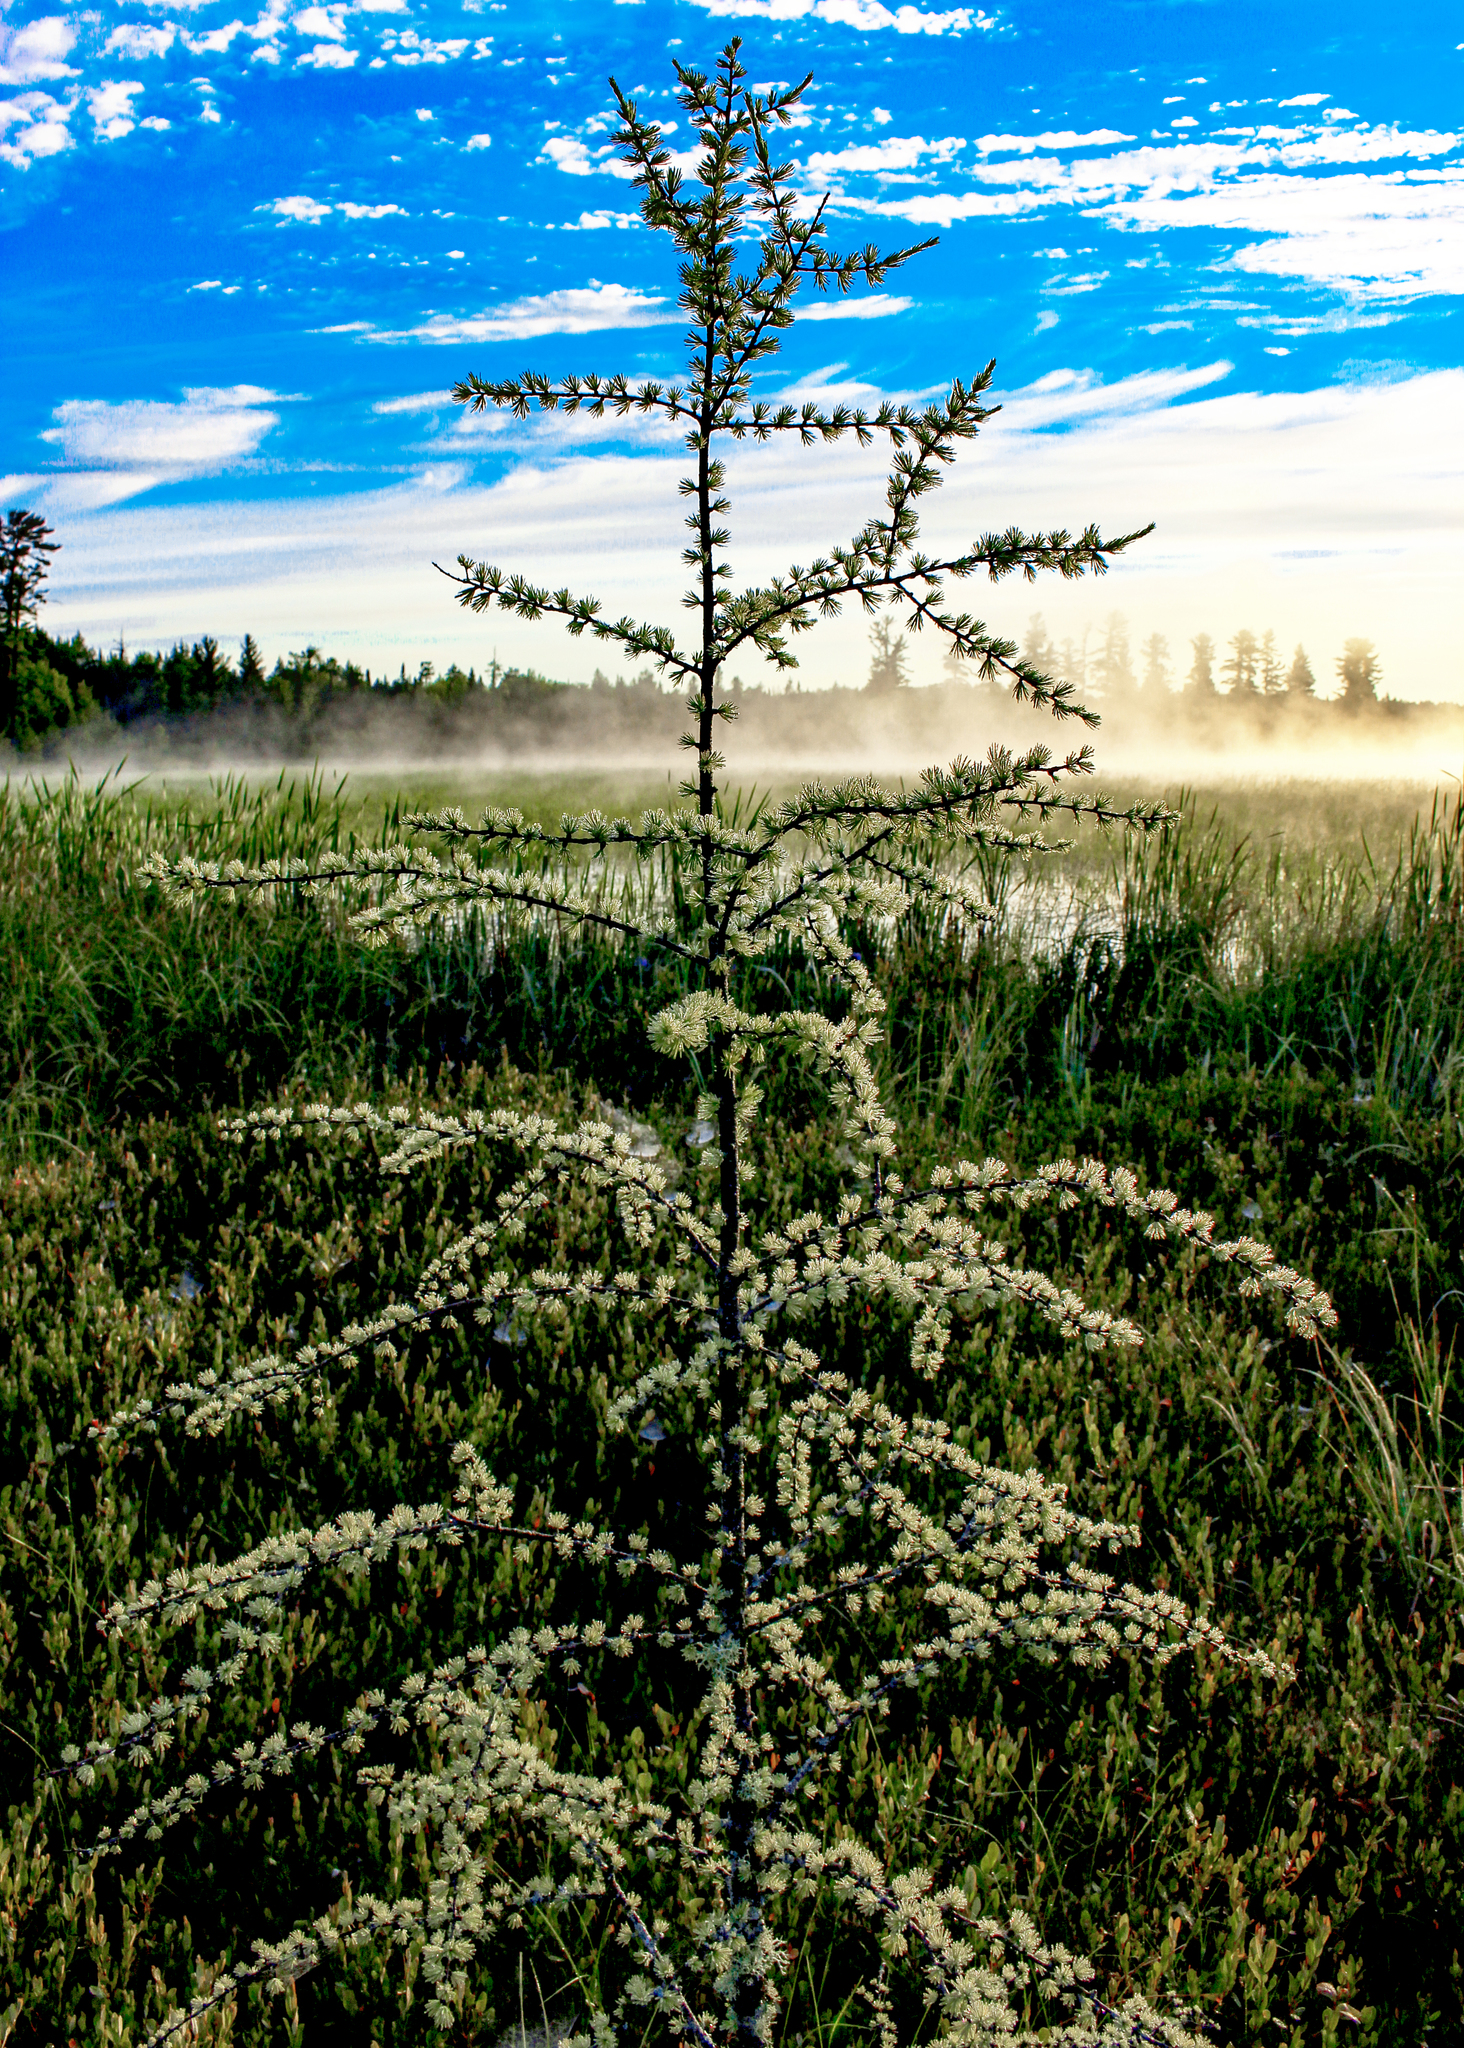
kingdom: Plantae
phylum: Tracheophyta
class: Pinopsida
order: Pinales
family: Pinaceae
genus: Larix
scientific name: Larix laricina
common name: American larch
